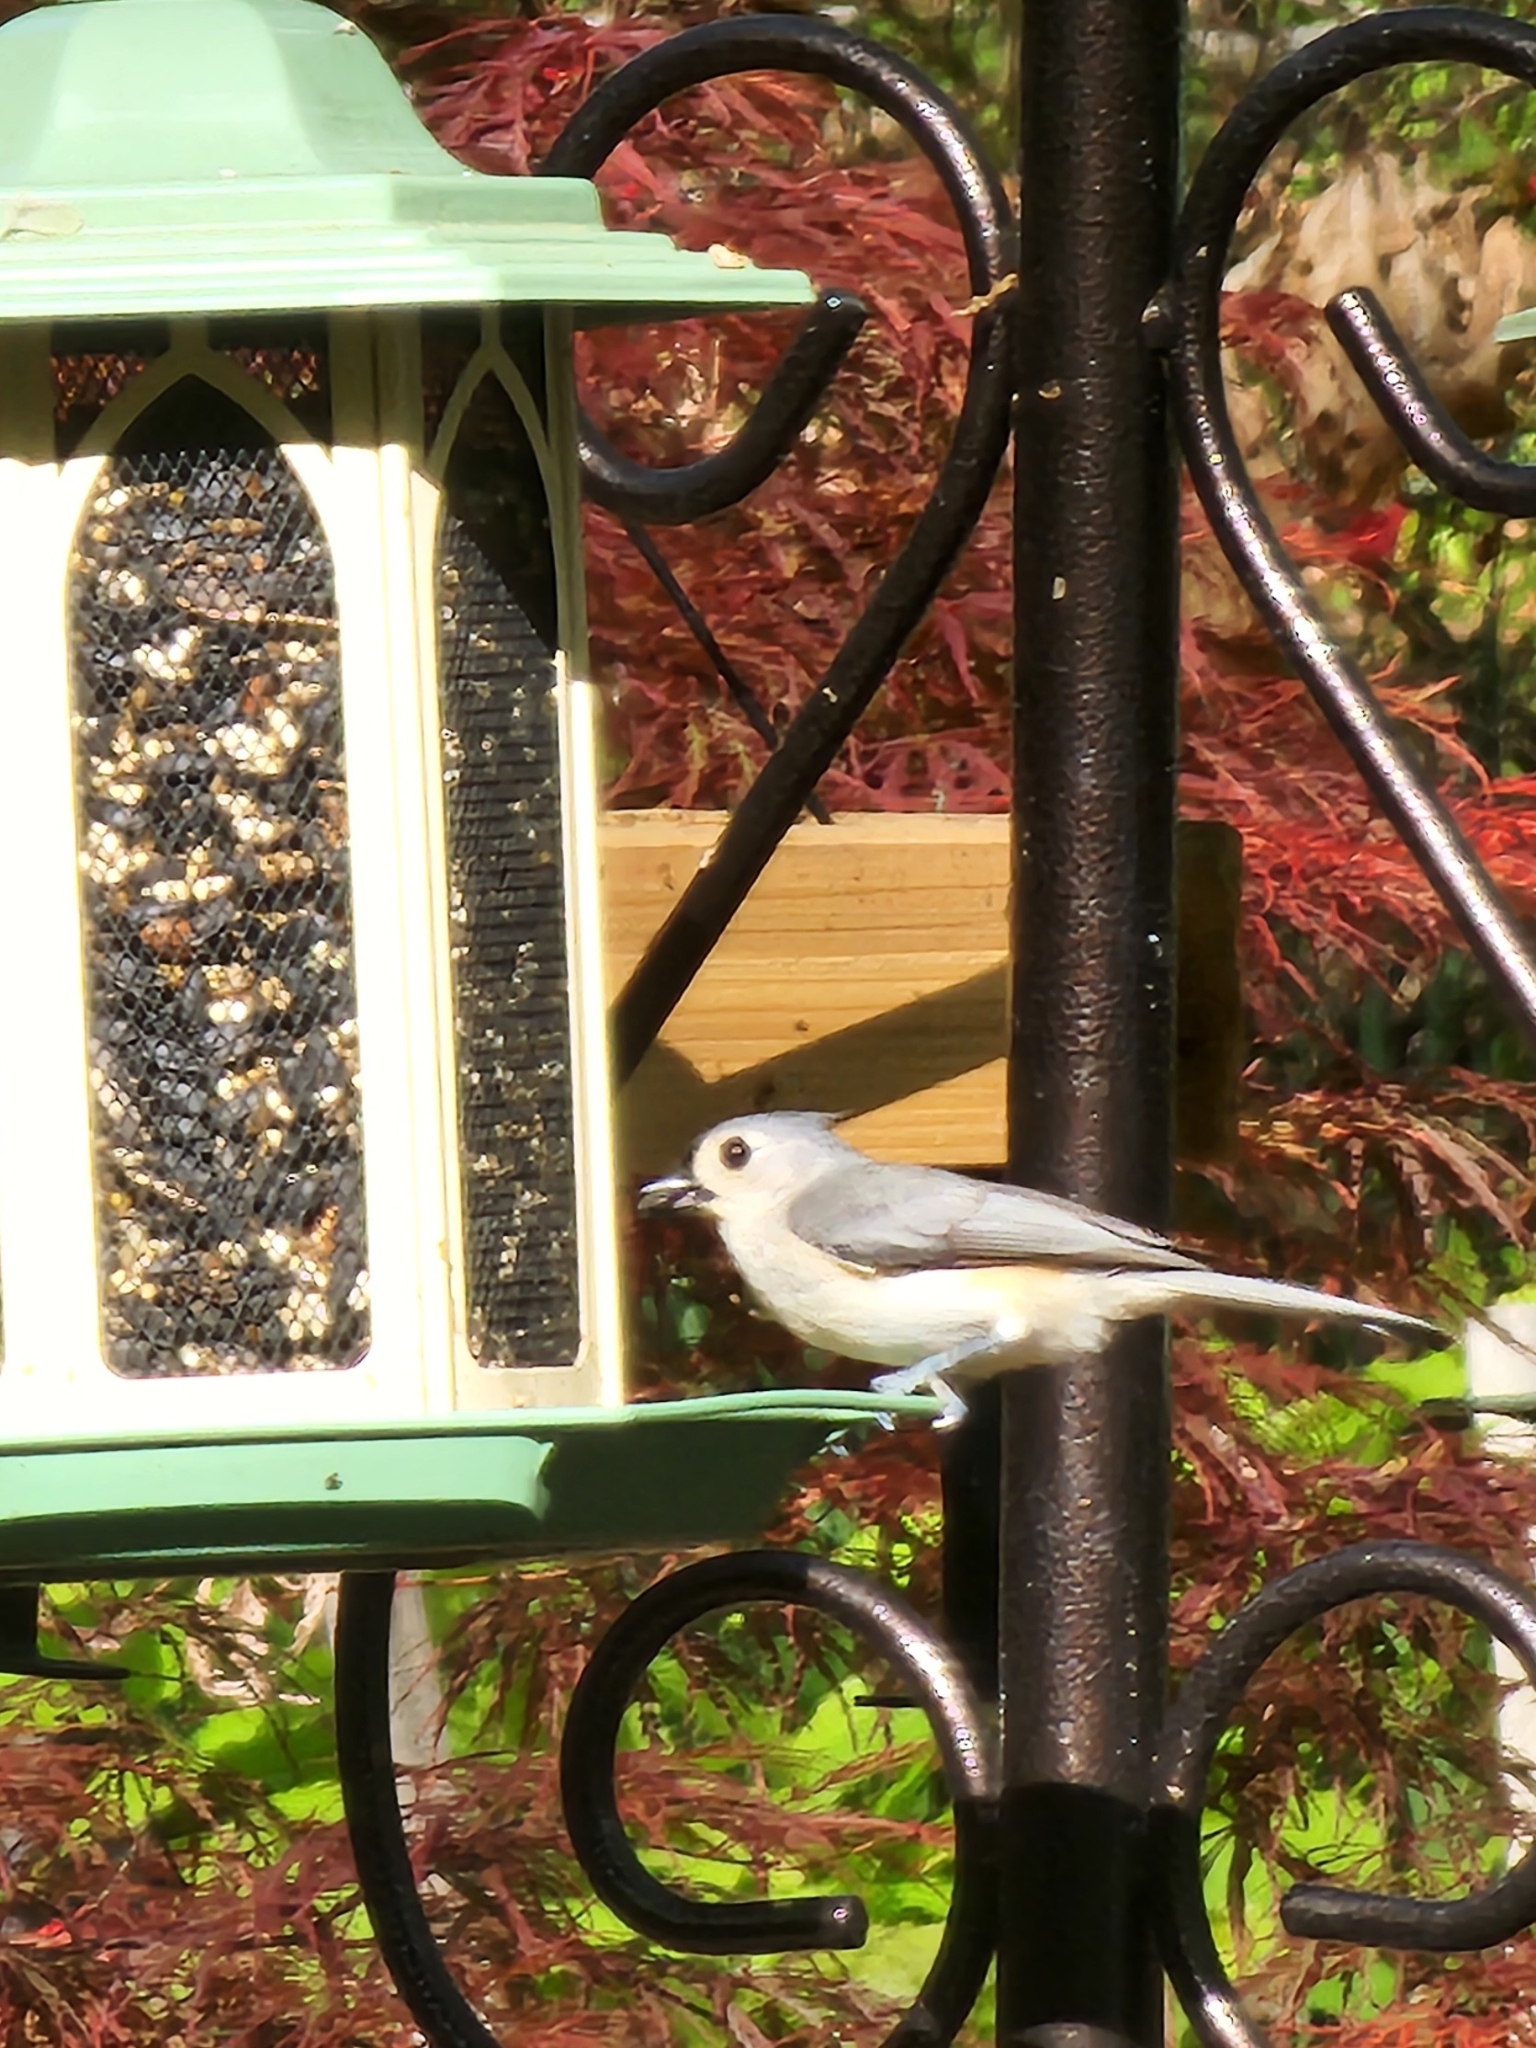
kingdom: Animalia
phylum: Chordata
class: Aves
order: Passeriformes
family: Paridae
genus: Baeolophus
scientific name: Baeolophus bicolor
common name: Tufted titmouse
